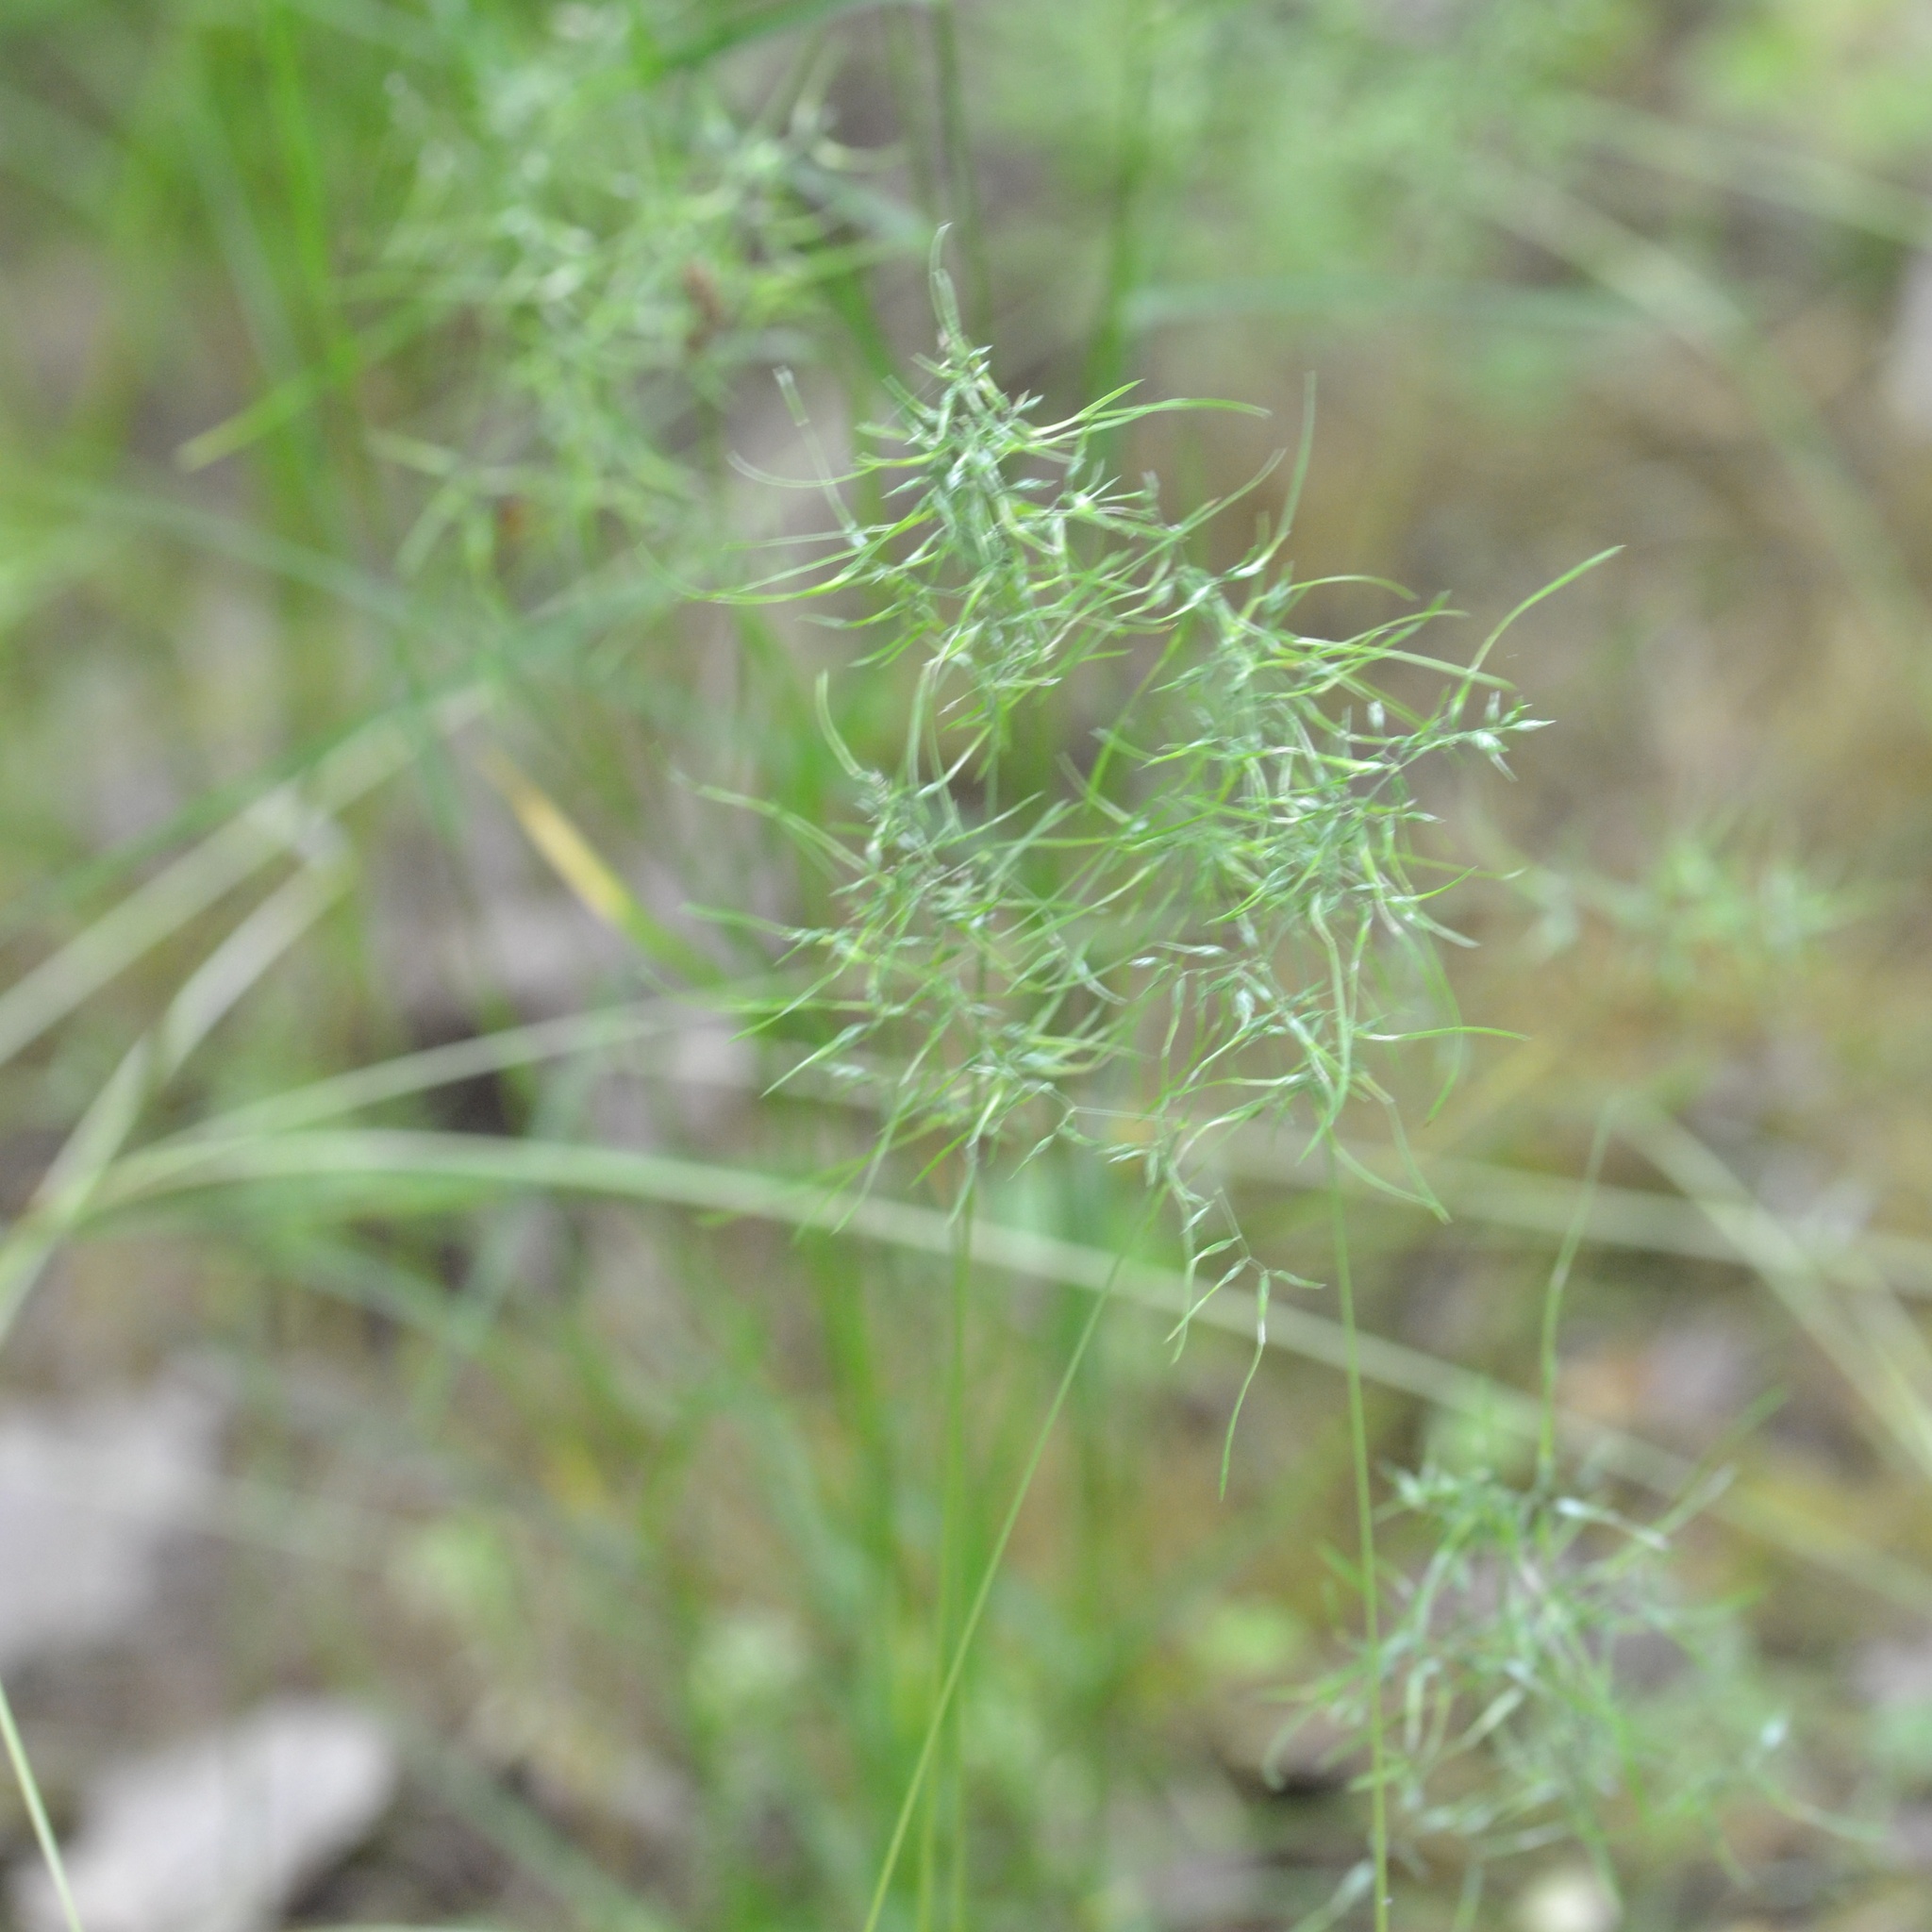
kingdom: Plantae
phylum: Tracheophyta
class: Liliopsida
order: Poales
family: Poaceae
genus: Poa
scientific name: Poa bulbosa
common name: Bulbous bluegrass
